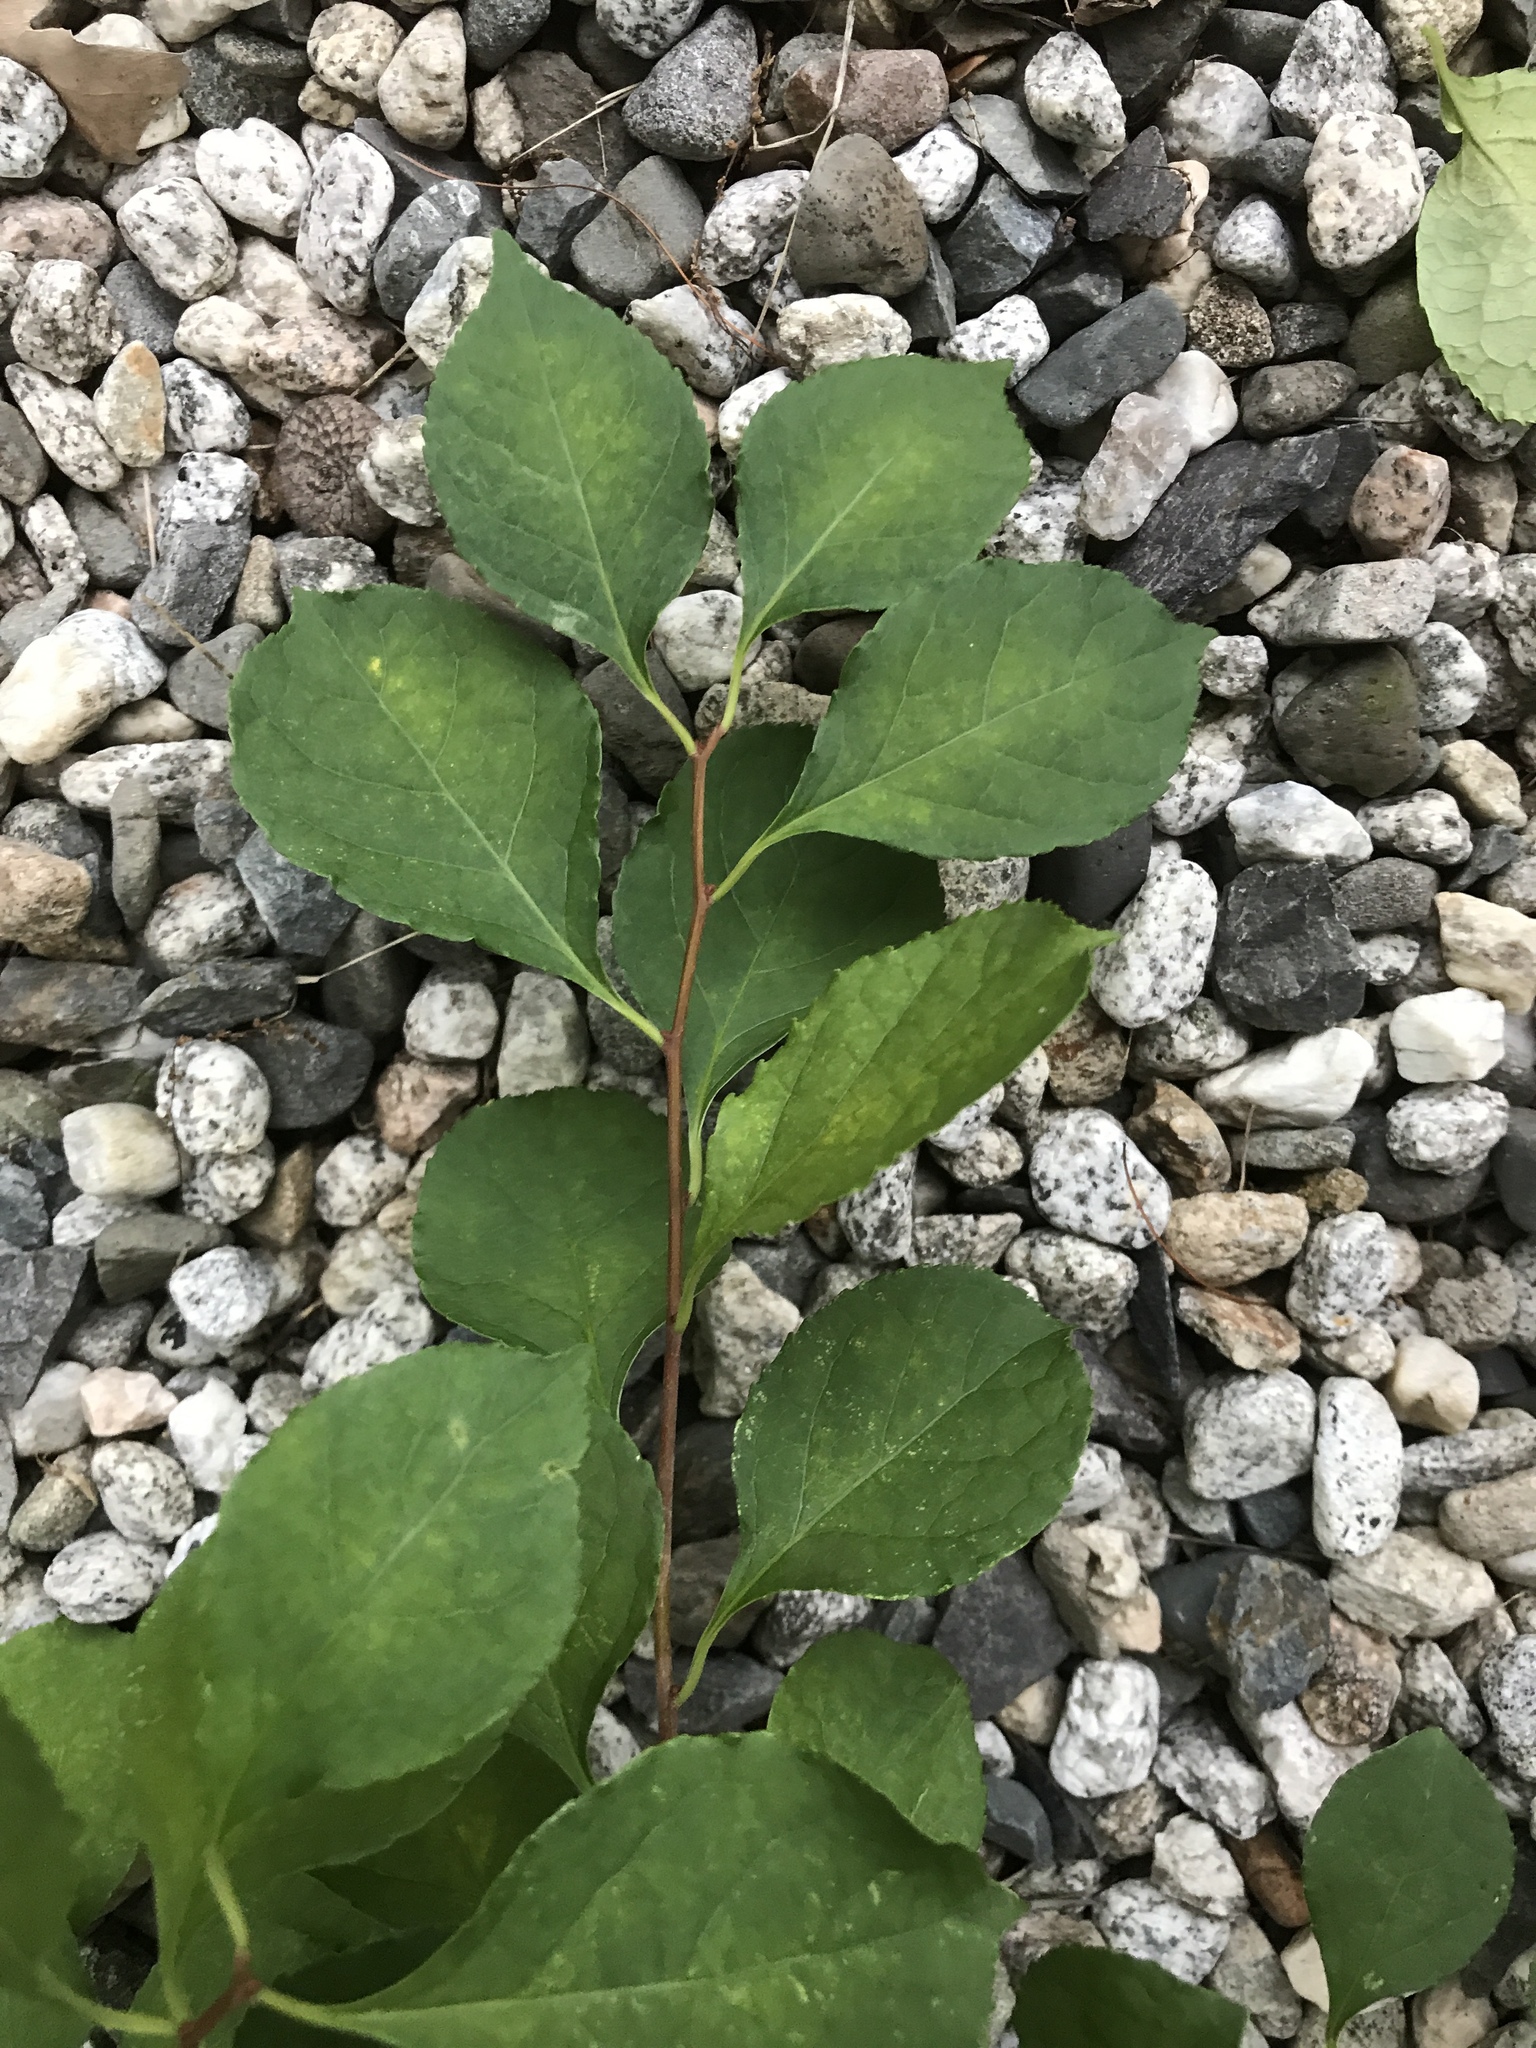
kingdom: Plantae
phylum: Tracheophyta
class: Magnoliopsida
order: Celastrales
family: Celastraceae
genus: Celastrus
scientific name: Celastrus orbiculatus
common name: Oriental bittersweet
